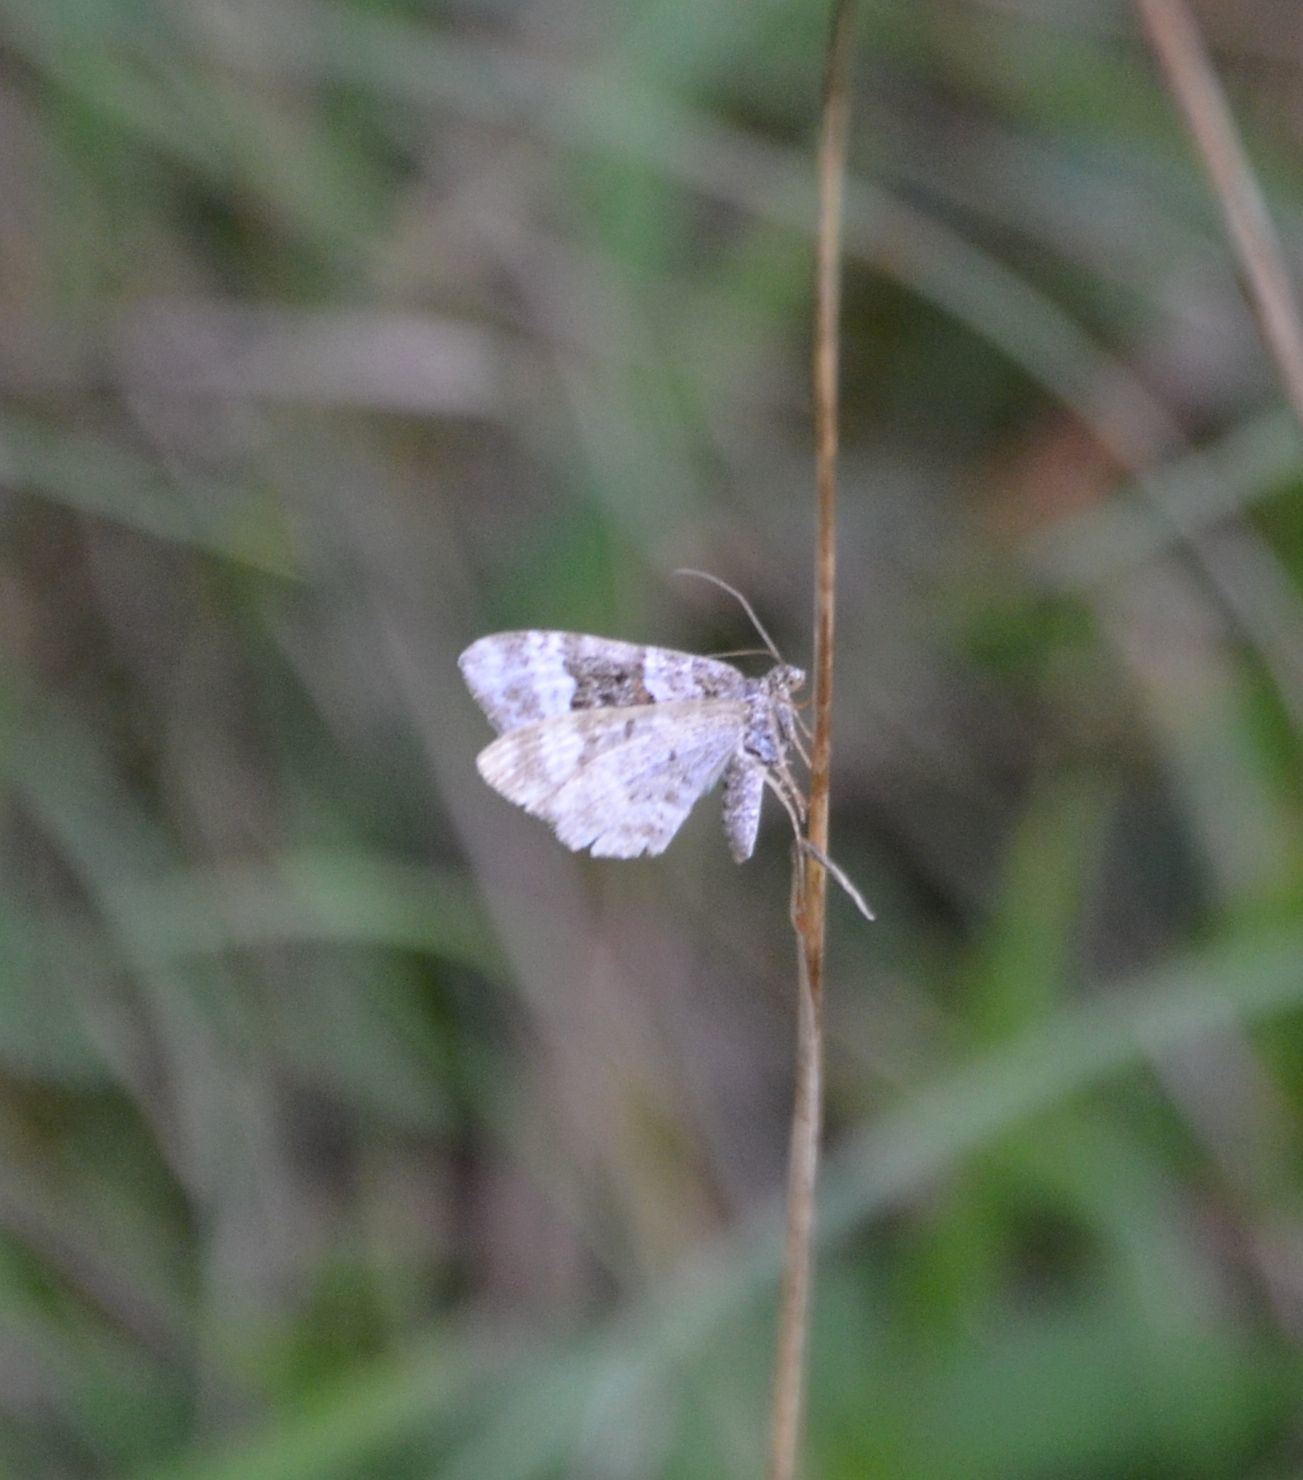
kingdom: Animalia
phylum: Arthropoda
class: Insecta
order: Lepidoptera
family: Geometridae
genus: Epirrhoe
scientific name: Epirrhoe alternata
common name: Common carpet
